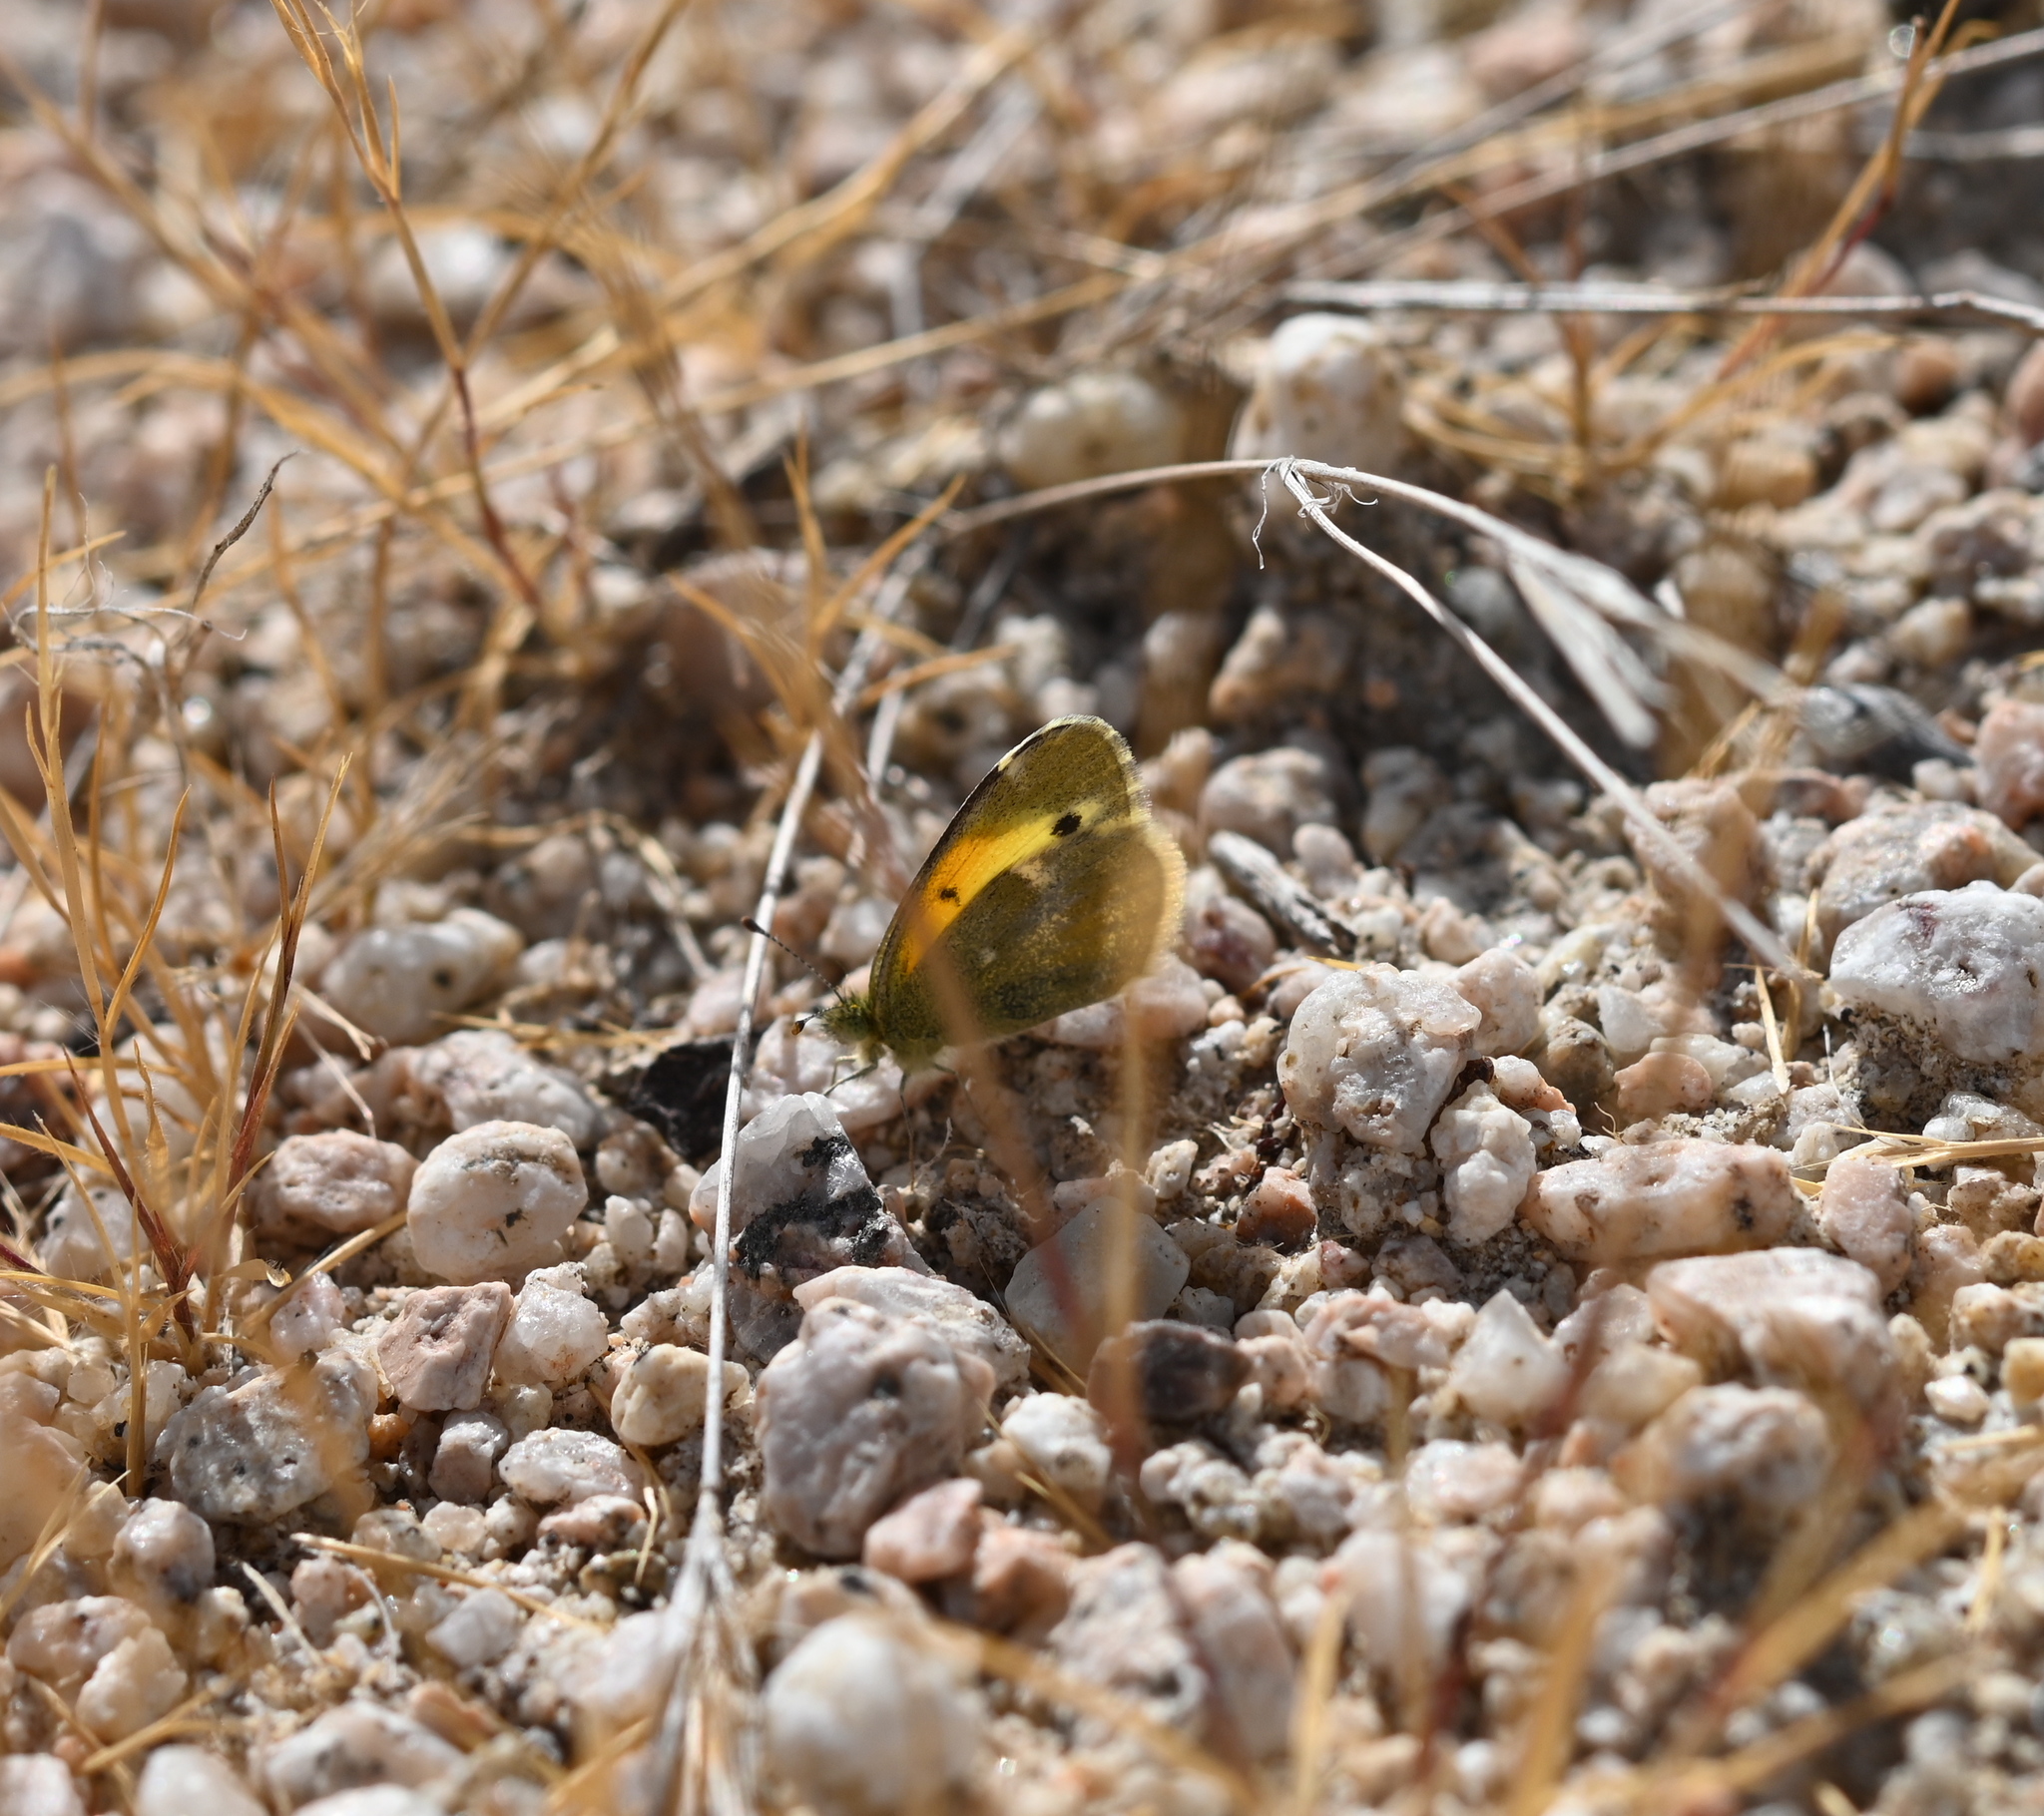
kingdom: Animalia
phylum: Arthropoda
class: Insecta
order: Lepidoptera
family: Pieridae
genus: Nathalis
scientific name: Nathalis iole
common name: Dainty sulphur
